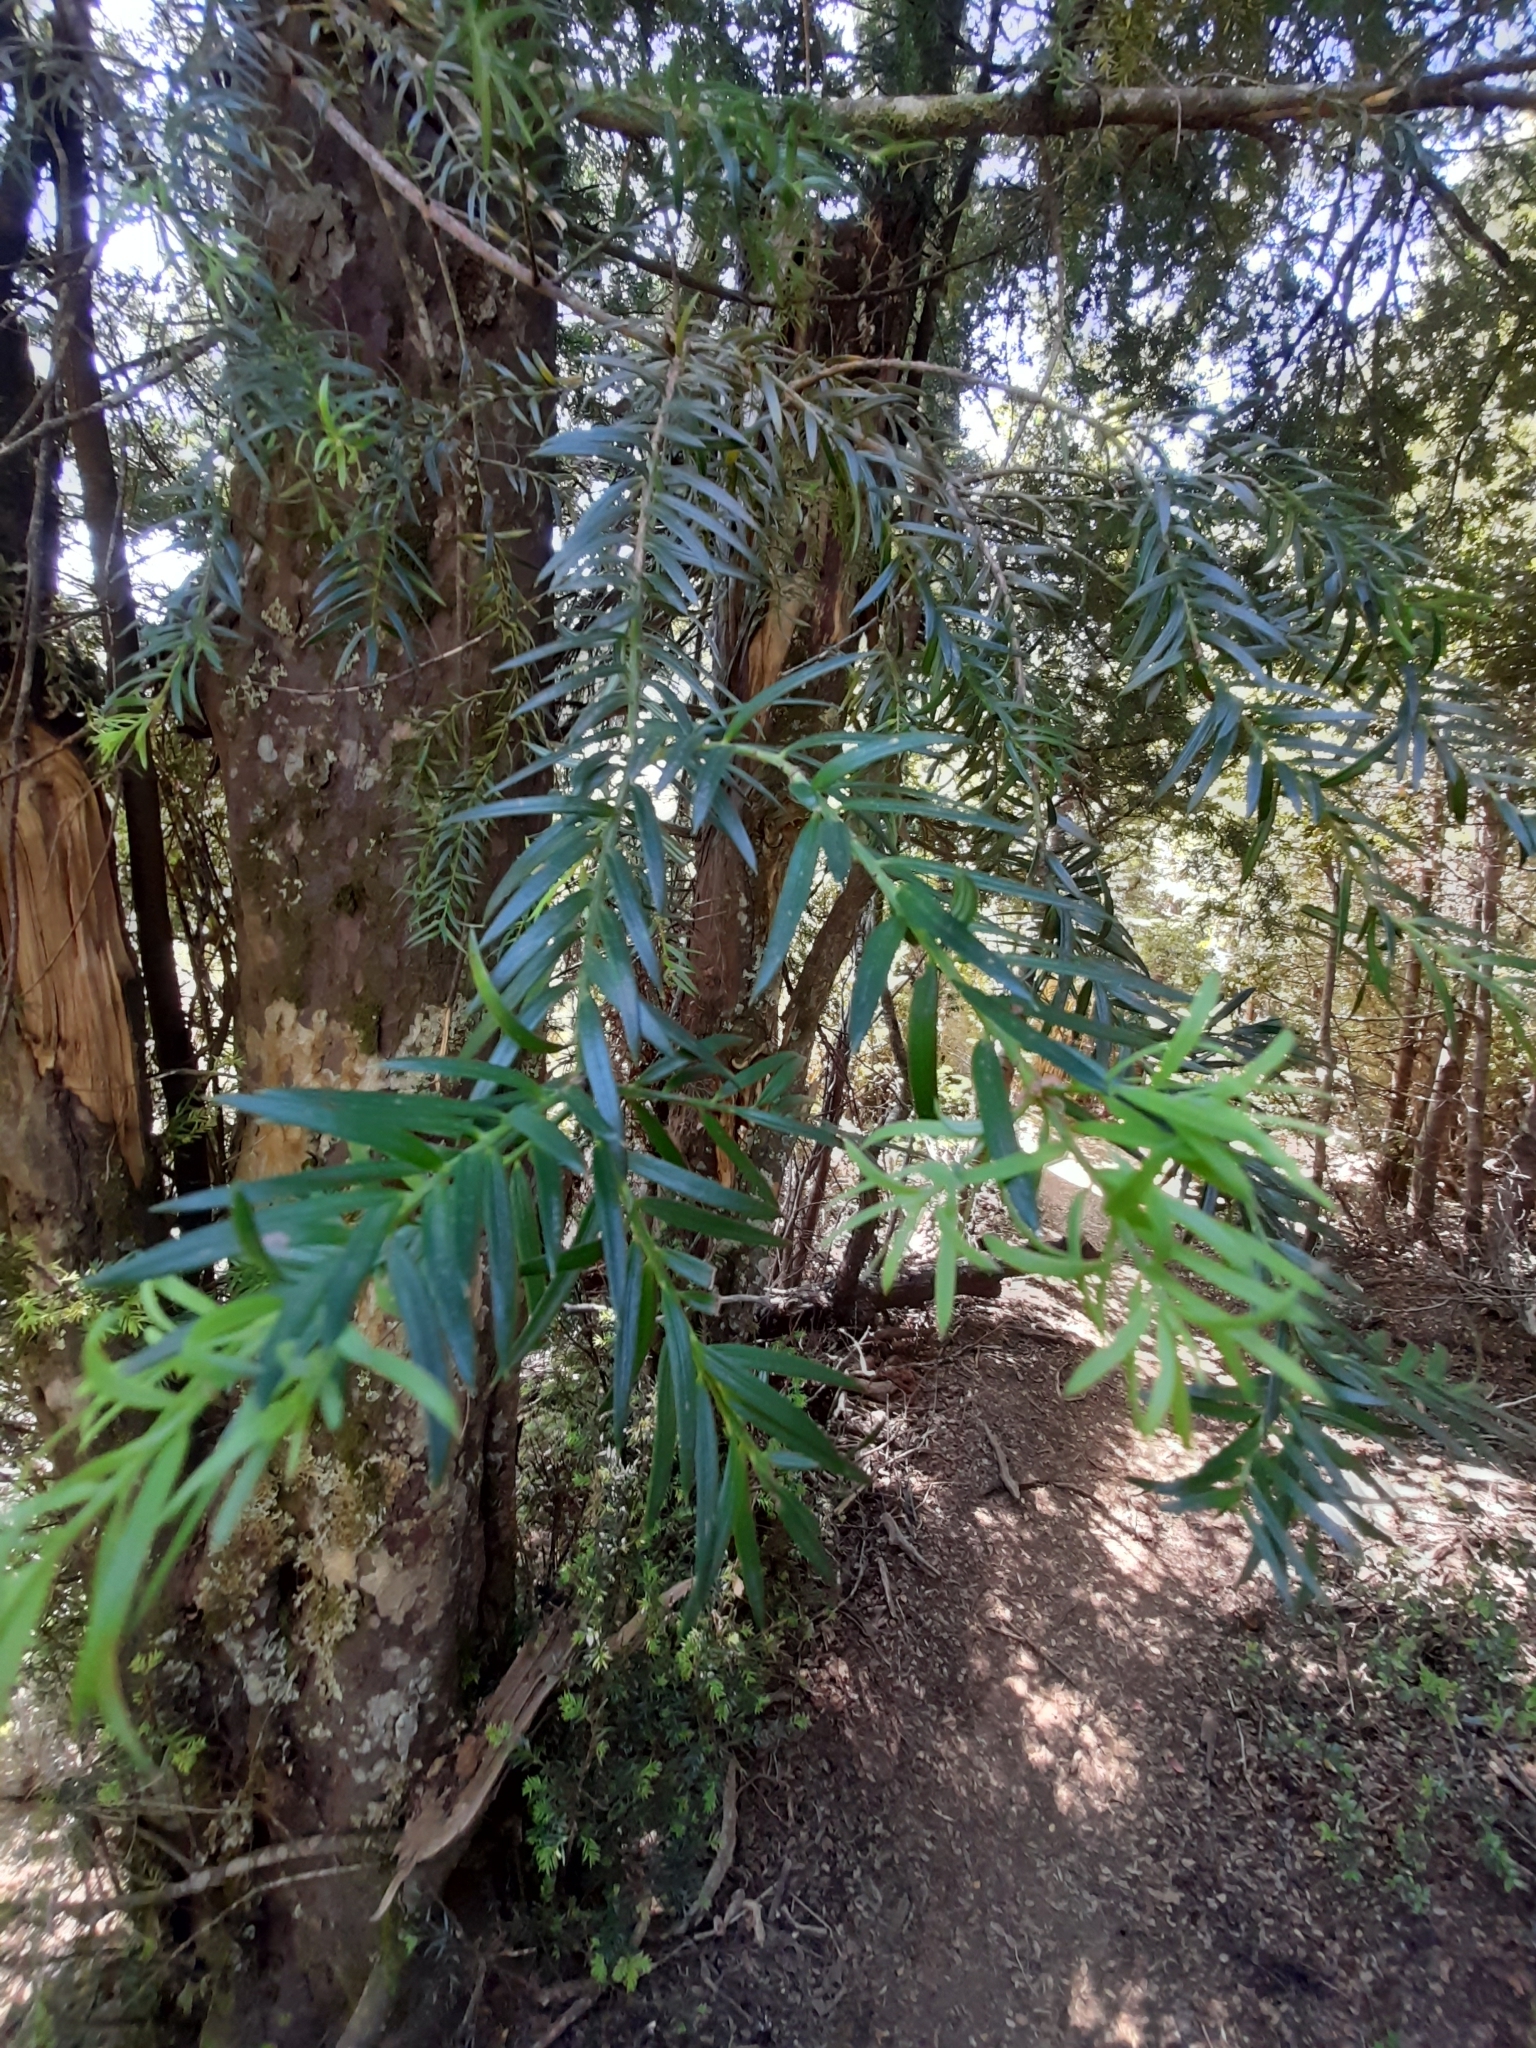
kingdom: Plantae
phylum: Tracheophyta
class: Pinopsida
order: Pinales
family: Podocarpaceae
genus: Saxegothaea
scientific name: Saxegothaea conspicua
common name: Prince albert's yew
